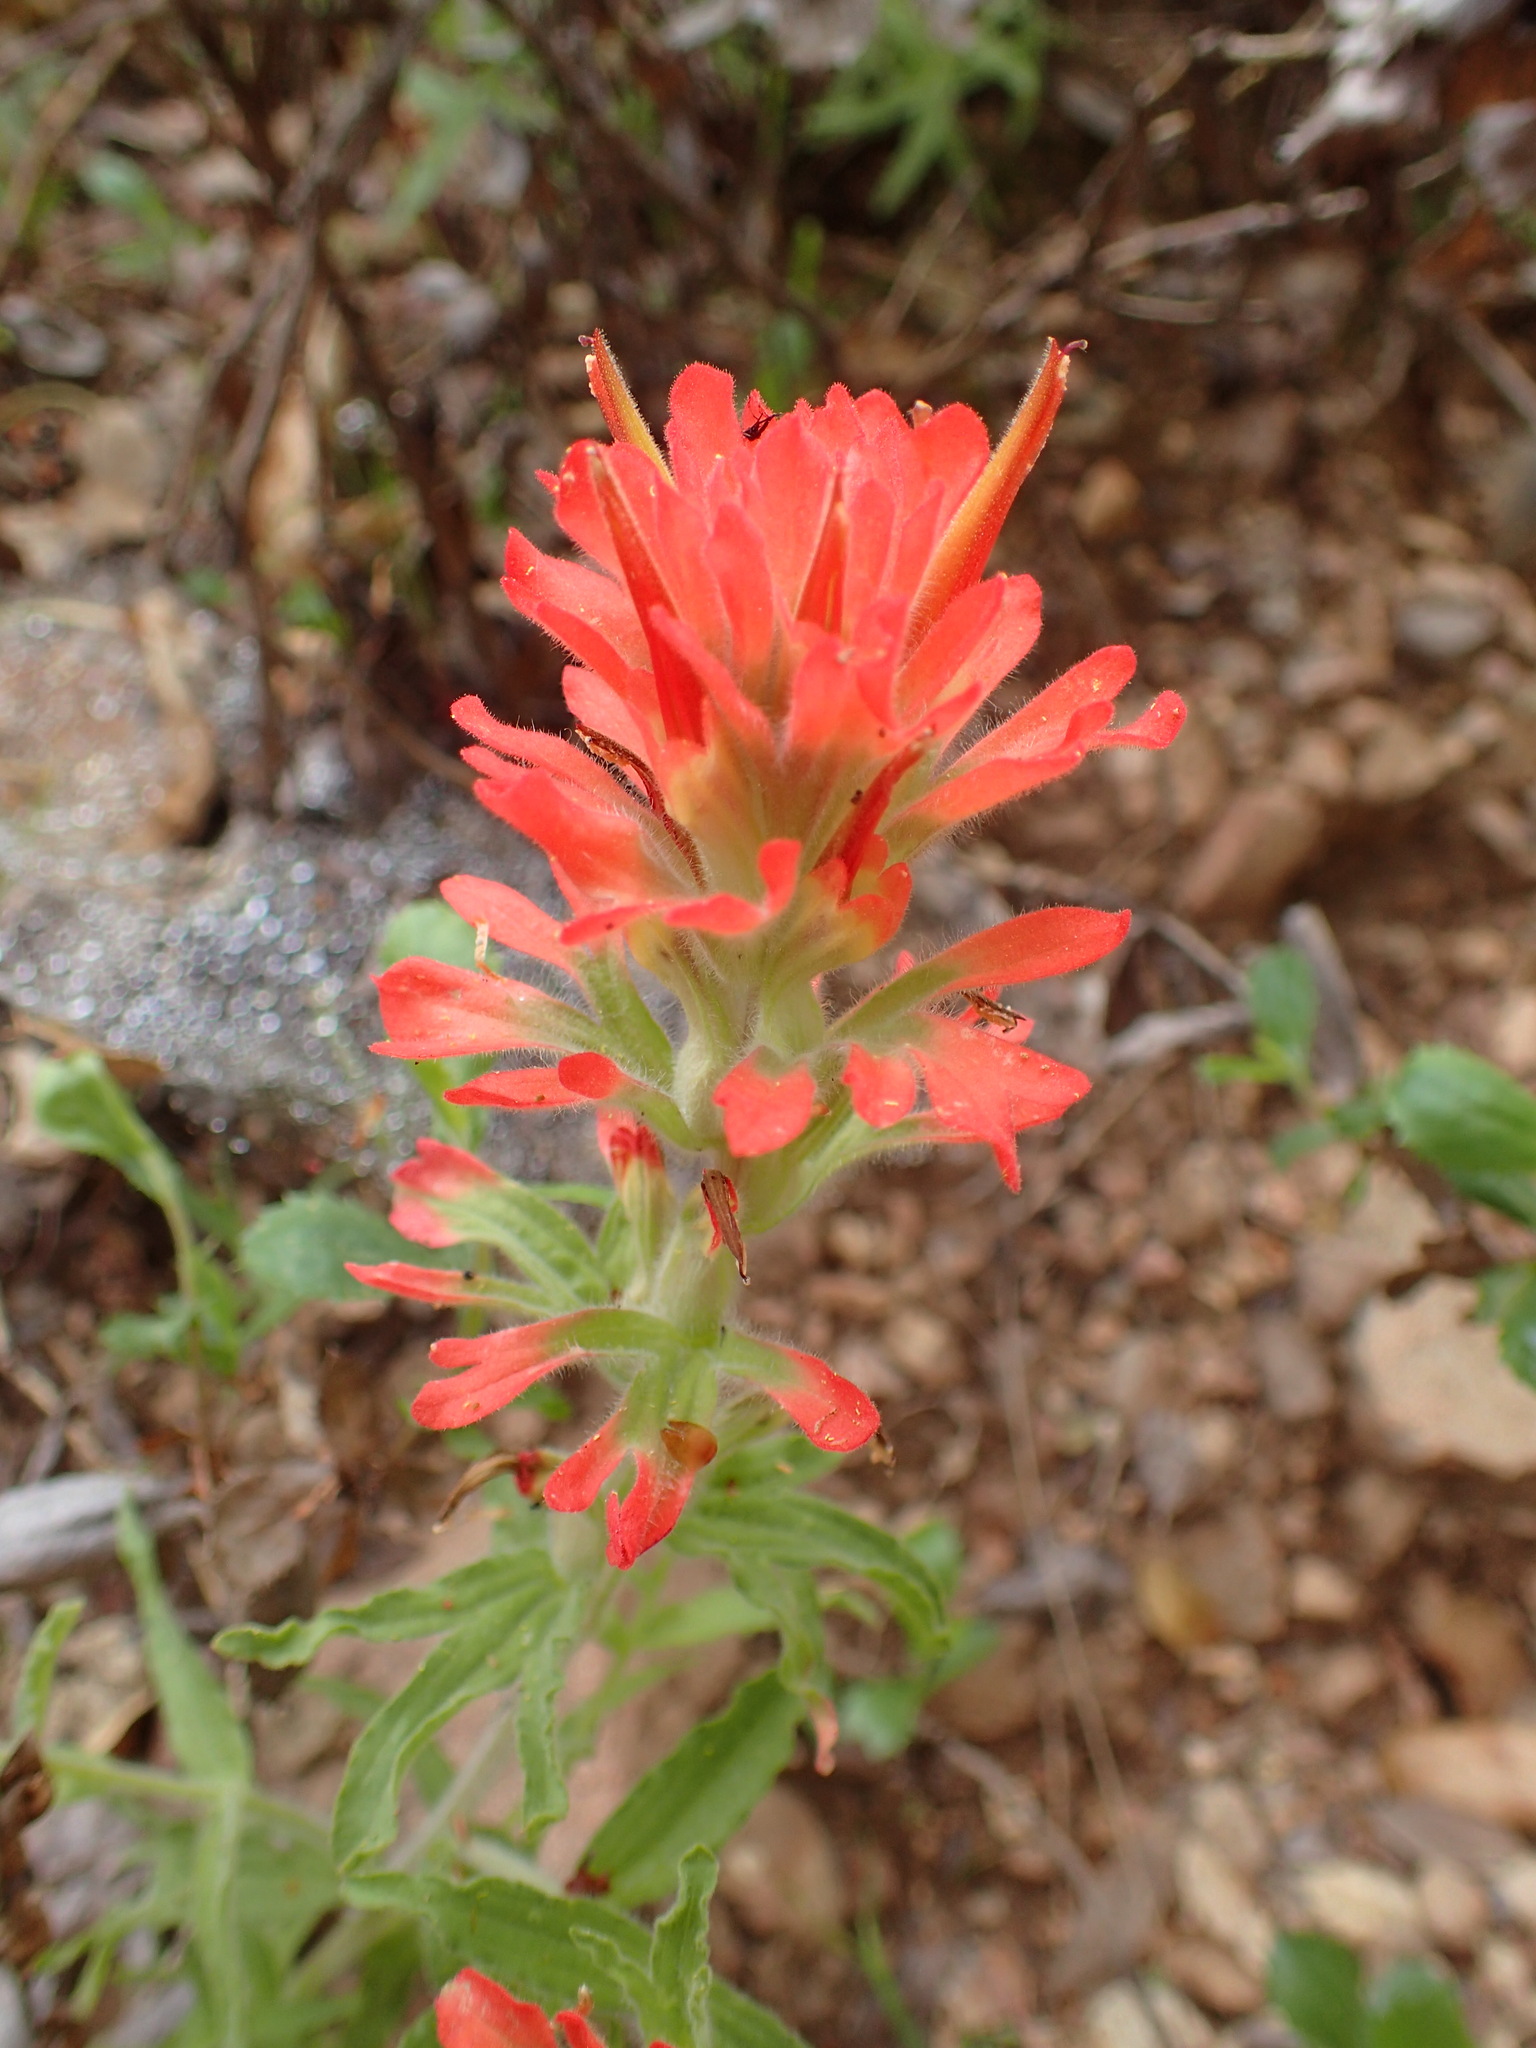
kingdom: Plantae
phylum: Tracheophyta
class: Magnoliopsida
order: Lamiales
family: Orobanchaceae
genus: Castilleja
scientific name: Castilleja affinis
